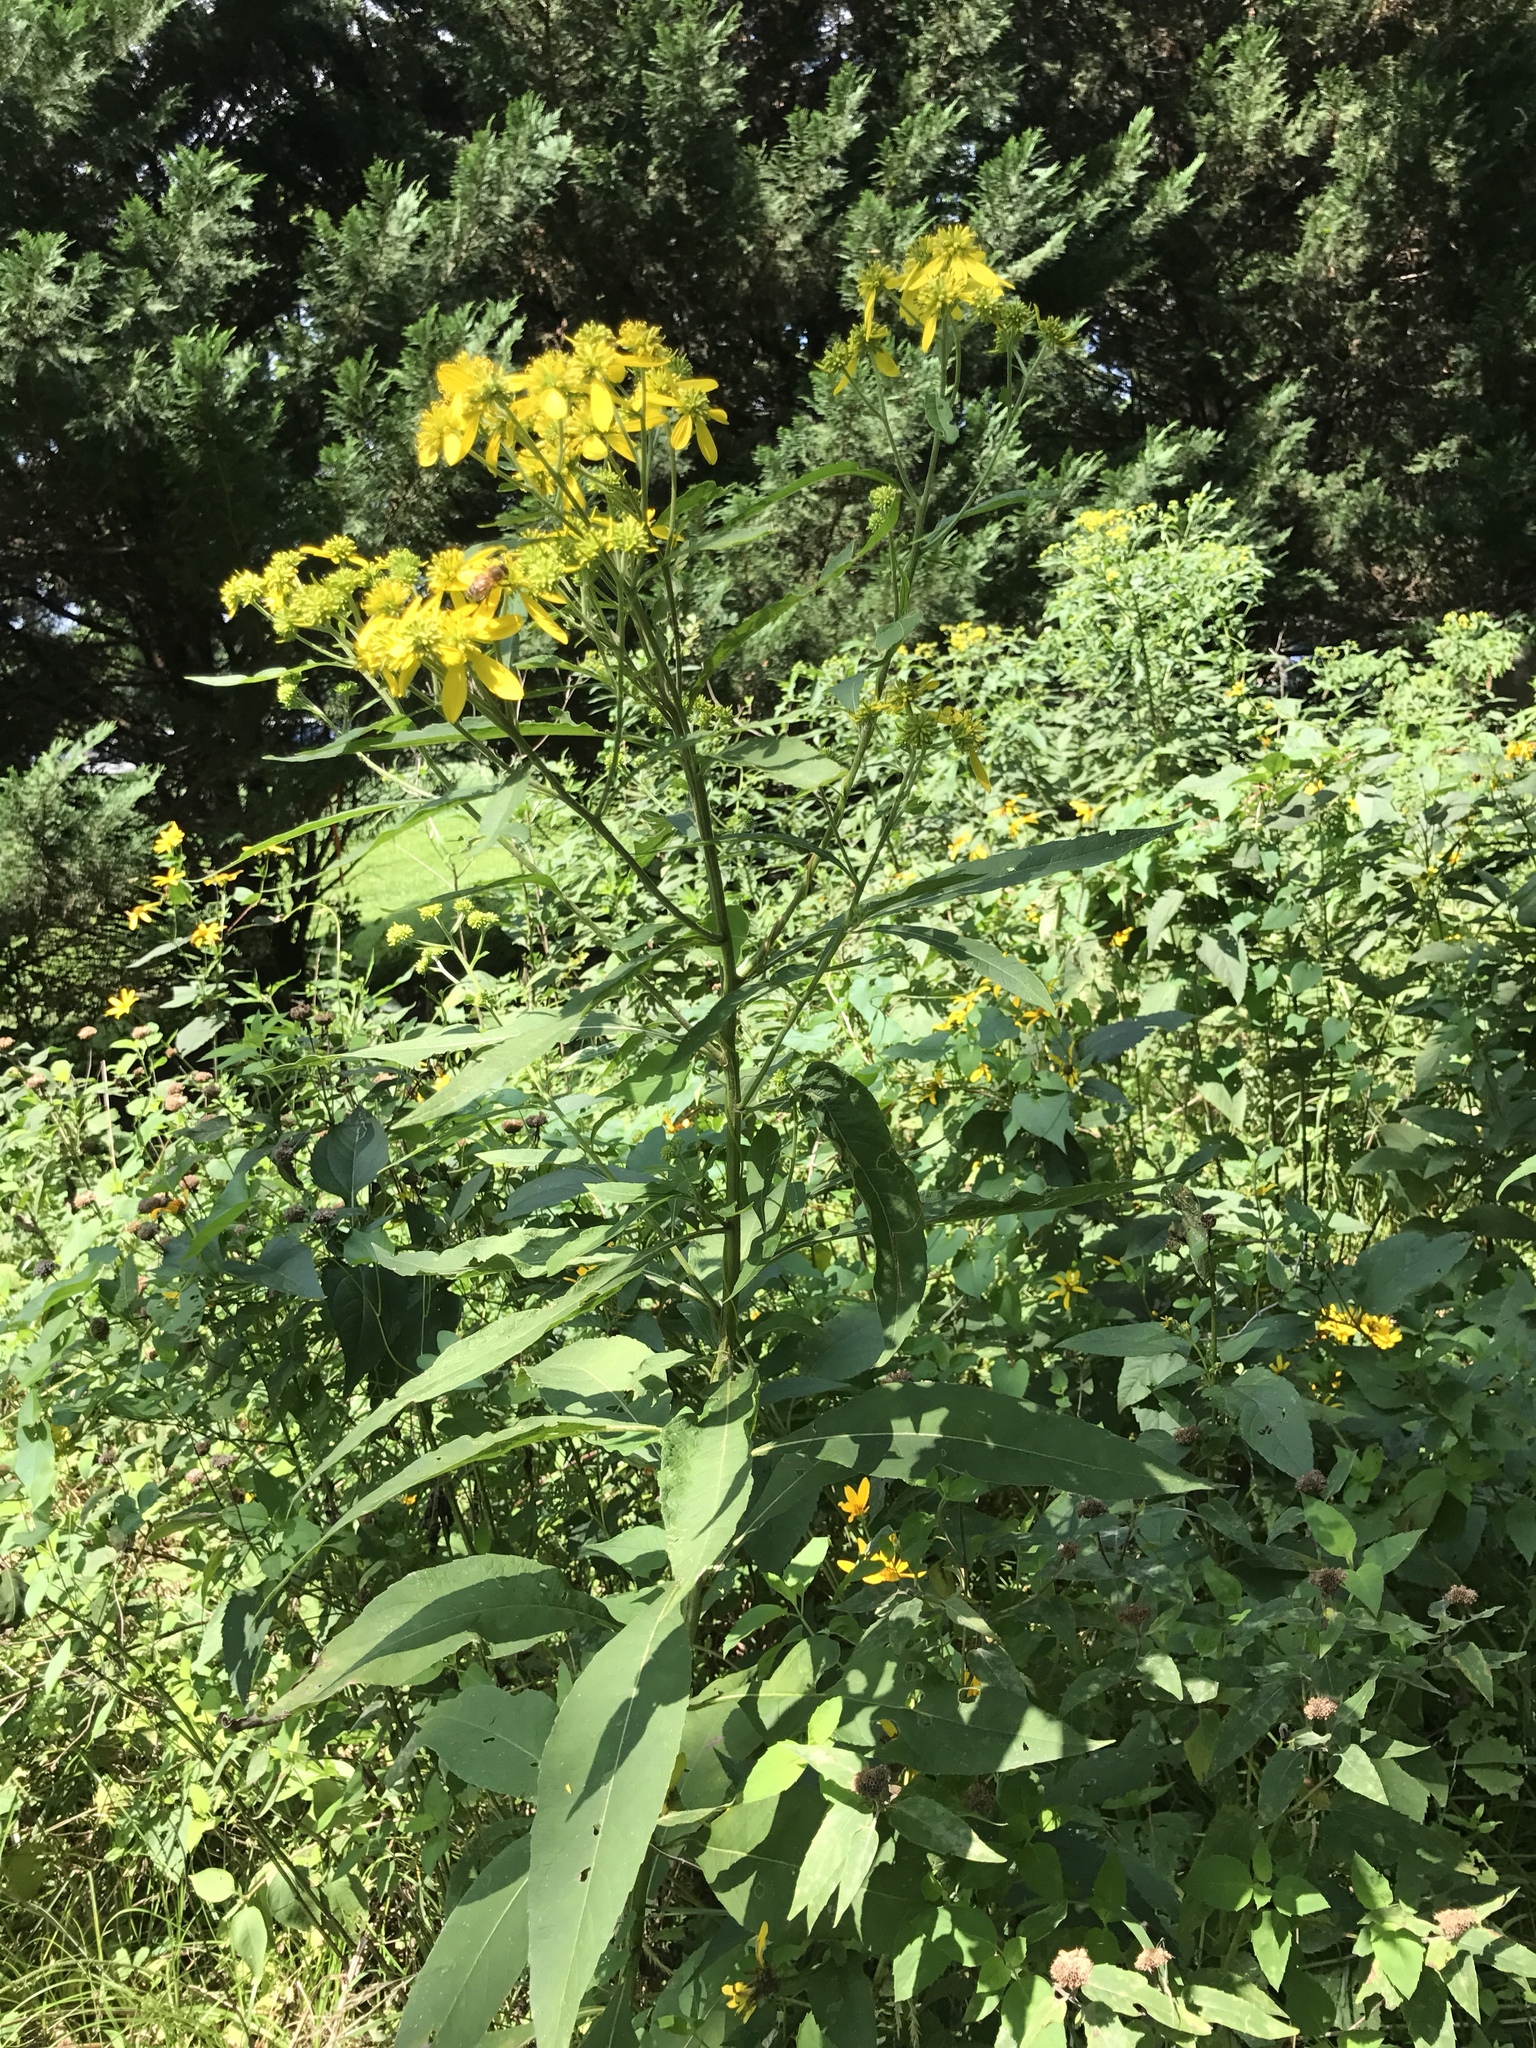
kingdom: Plantae
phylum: Tracheophyta
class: Magnoliopsida
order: Asterales
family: Asteraceae
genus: Verbesina
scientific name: Verbesina alternifolia
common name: Wingstem
